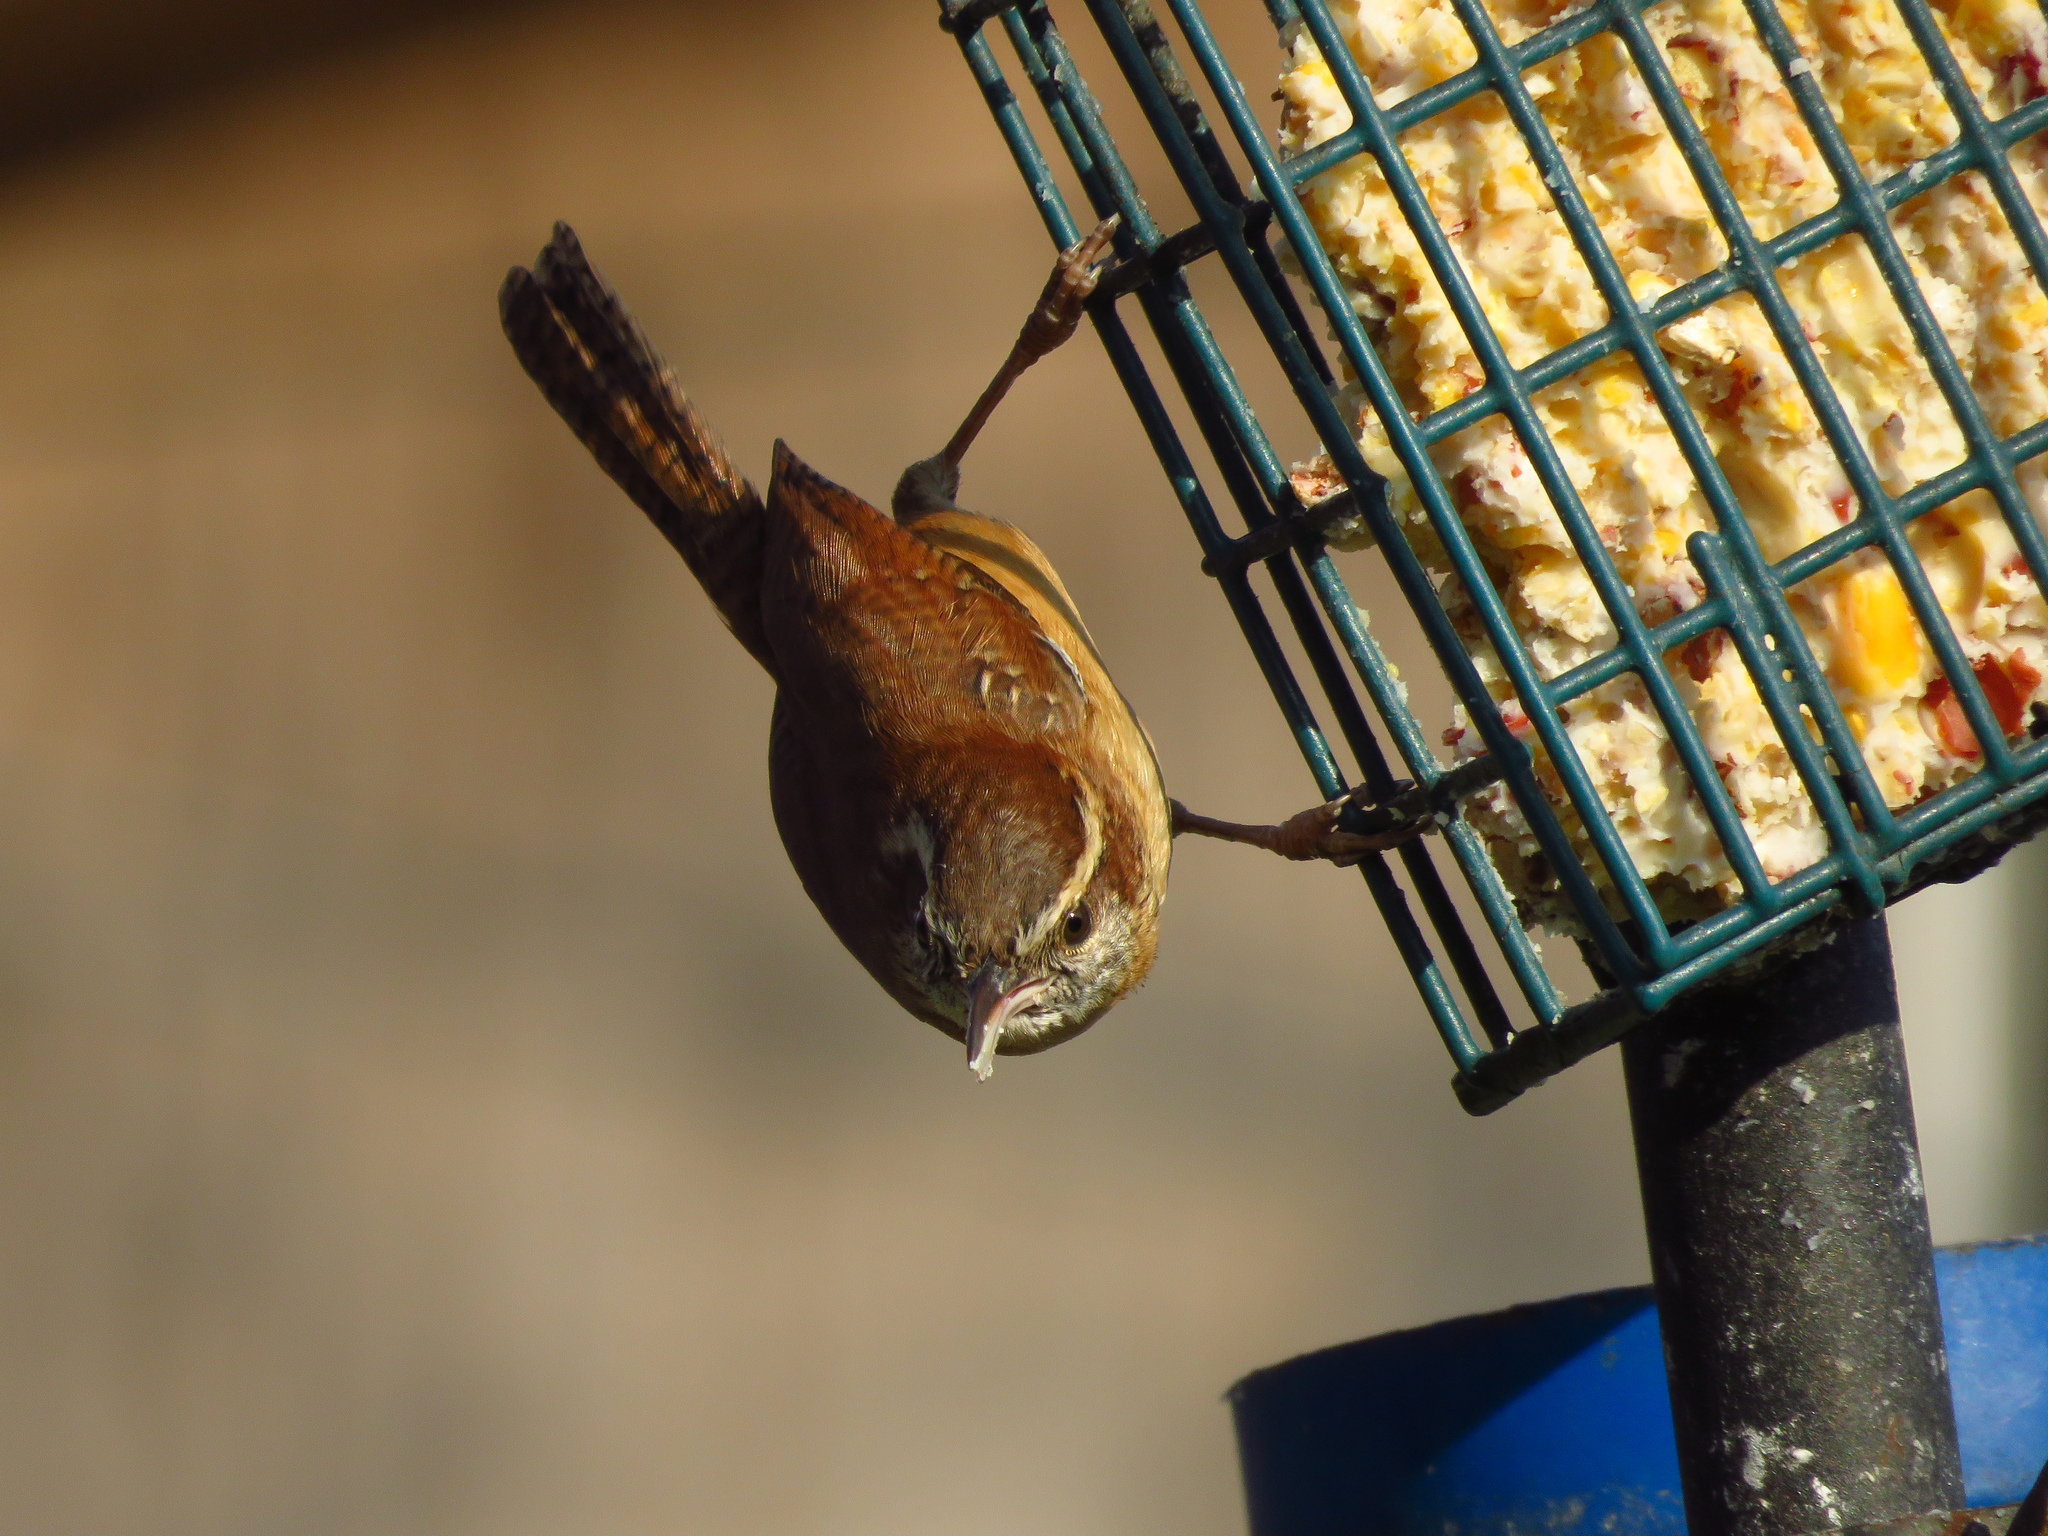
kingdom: Animalia
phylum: Chordata
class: Aves
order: Passeriformes
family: Troglodytidae
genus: Thryothorus
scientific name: Thryothorus ludovicianus
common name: Carolina wren
